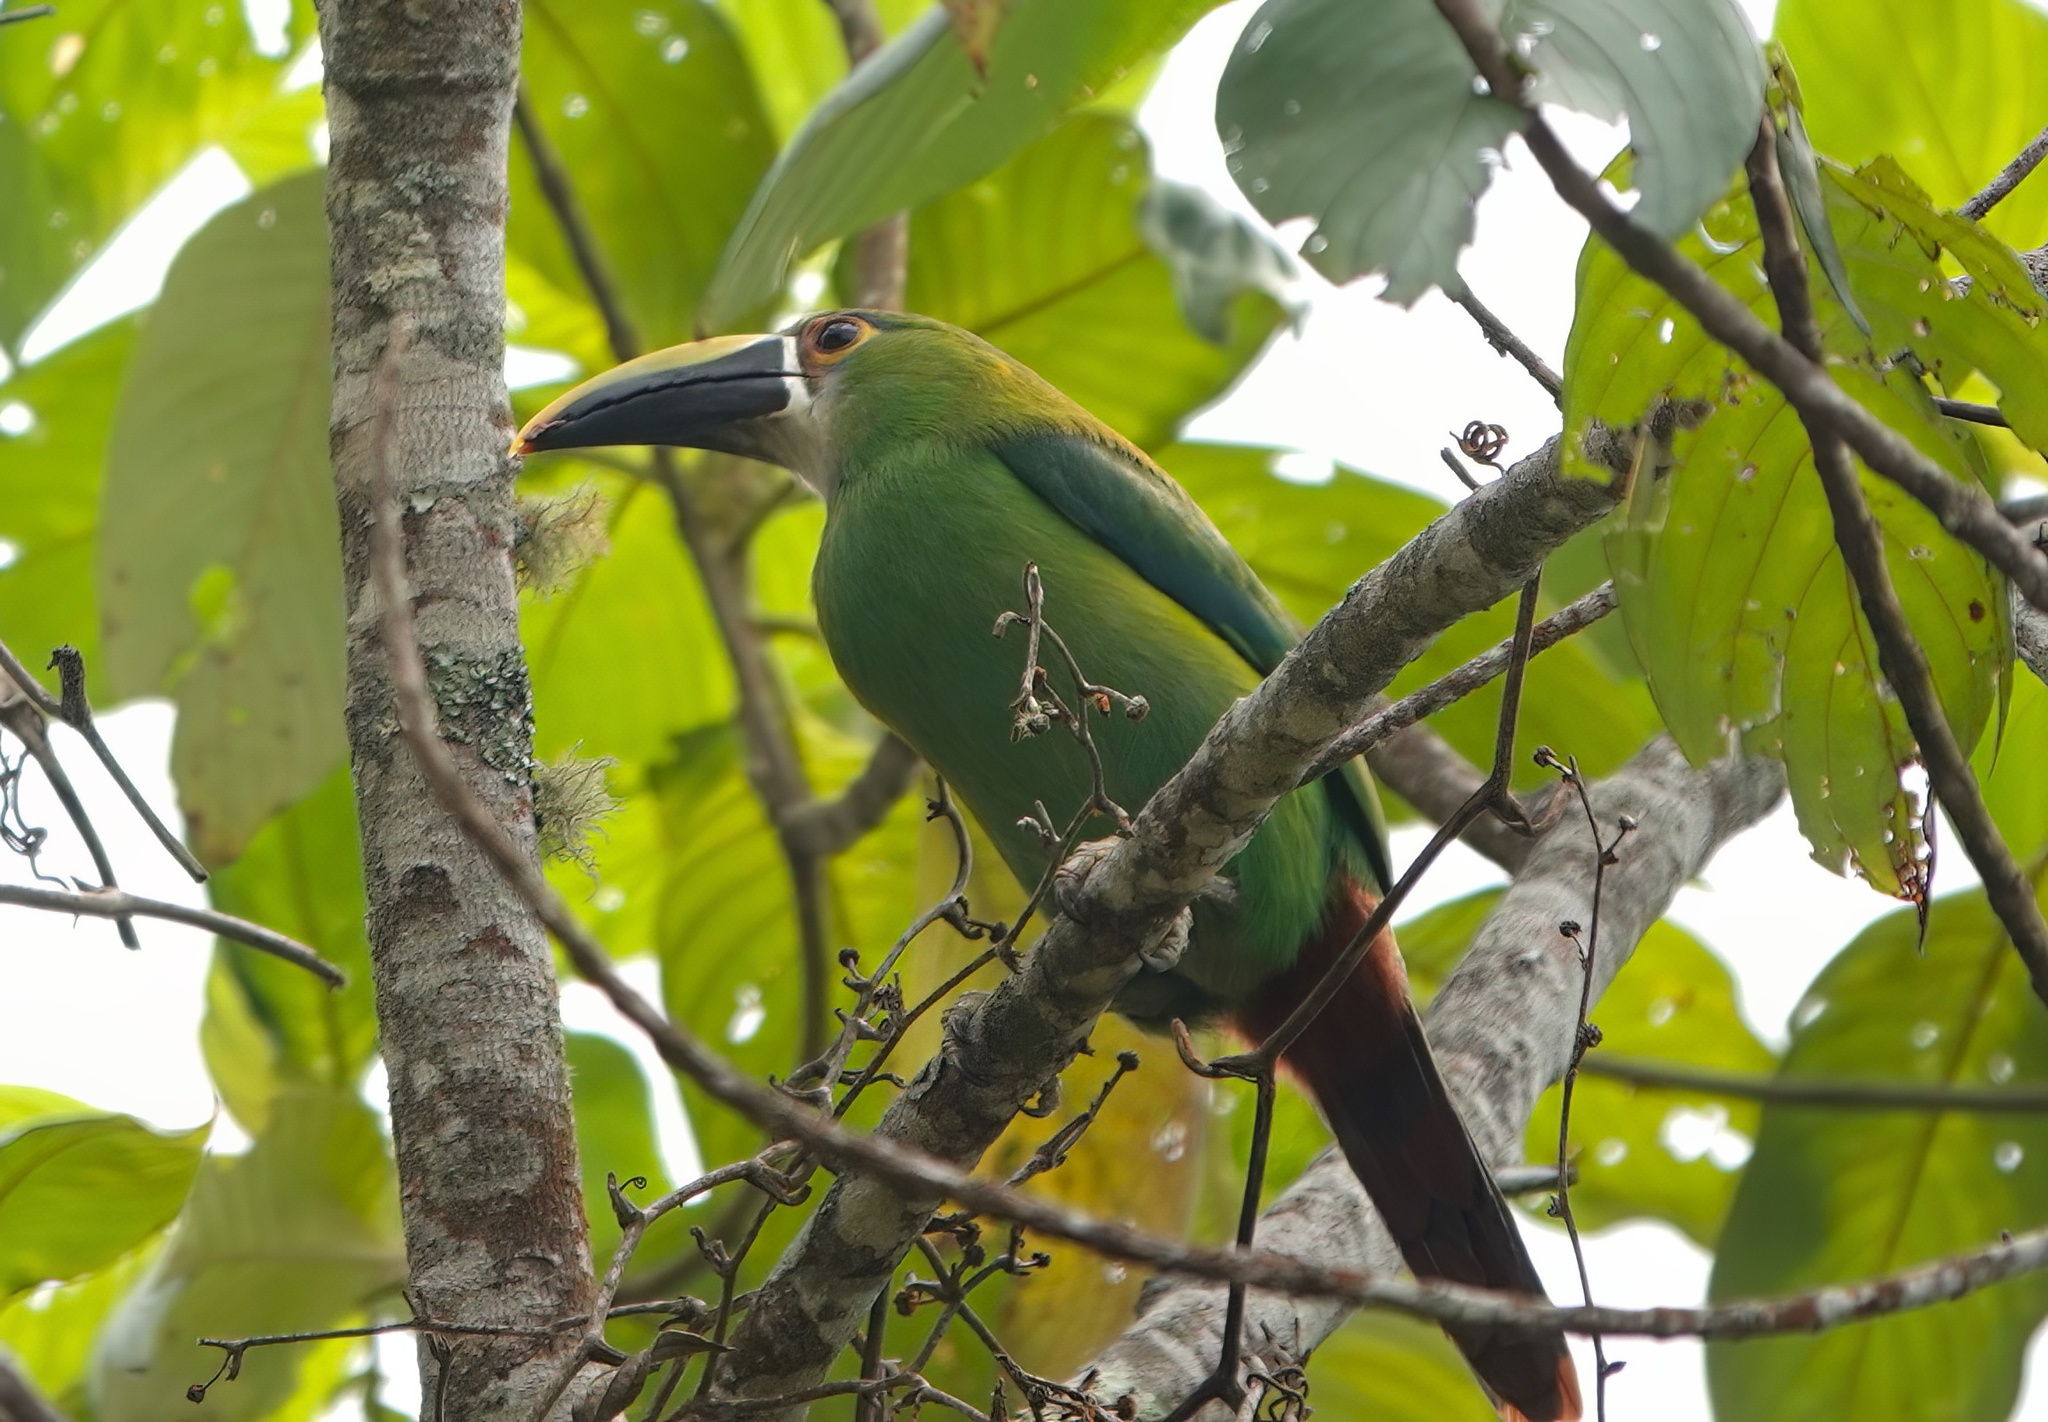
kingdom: Animalia
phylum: Chordata
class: Aves
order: Piciformes
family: Ramphastidae
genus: Aulacorhynchus
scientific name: Aulacorhynchus albivitta
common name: White-throated toucanet
